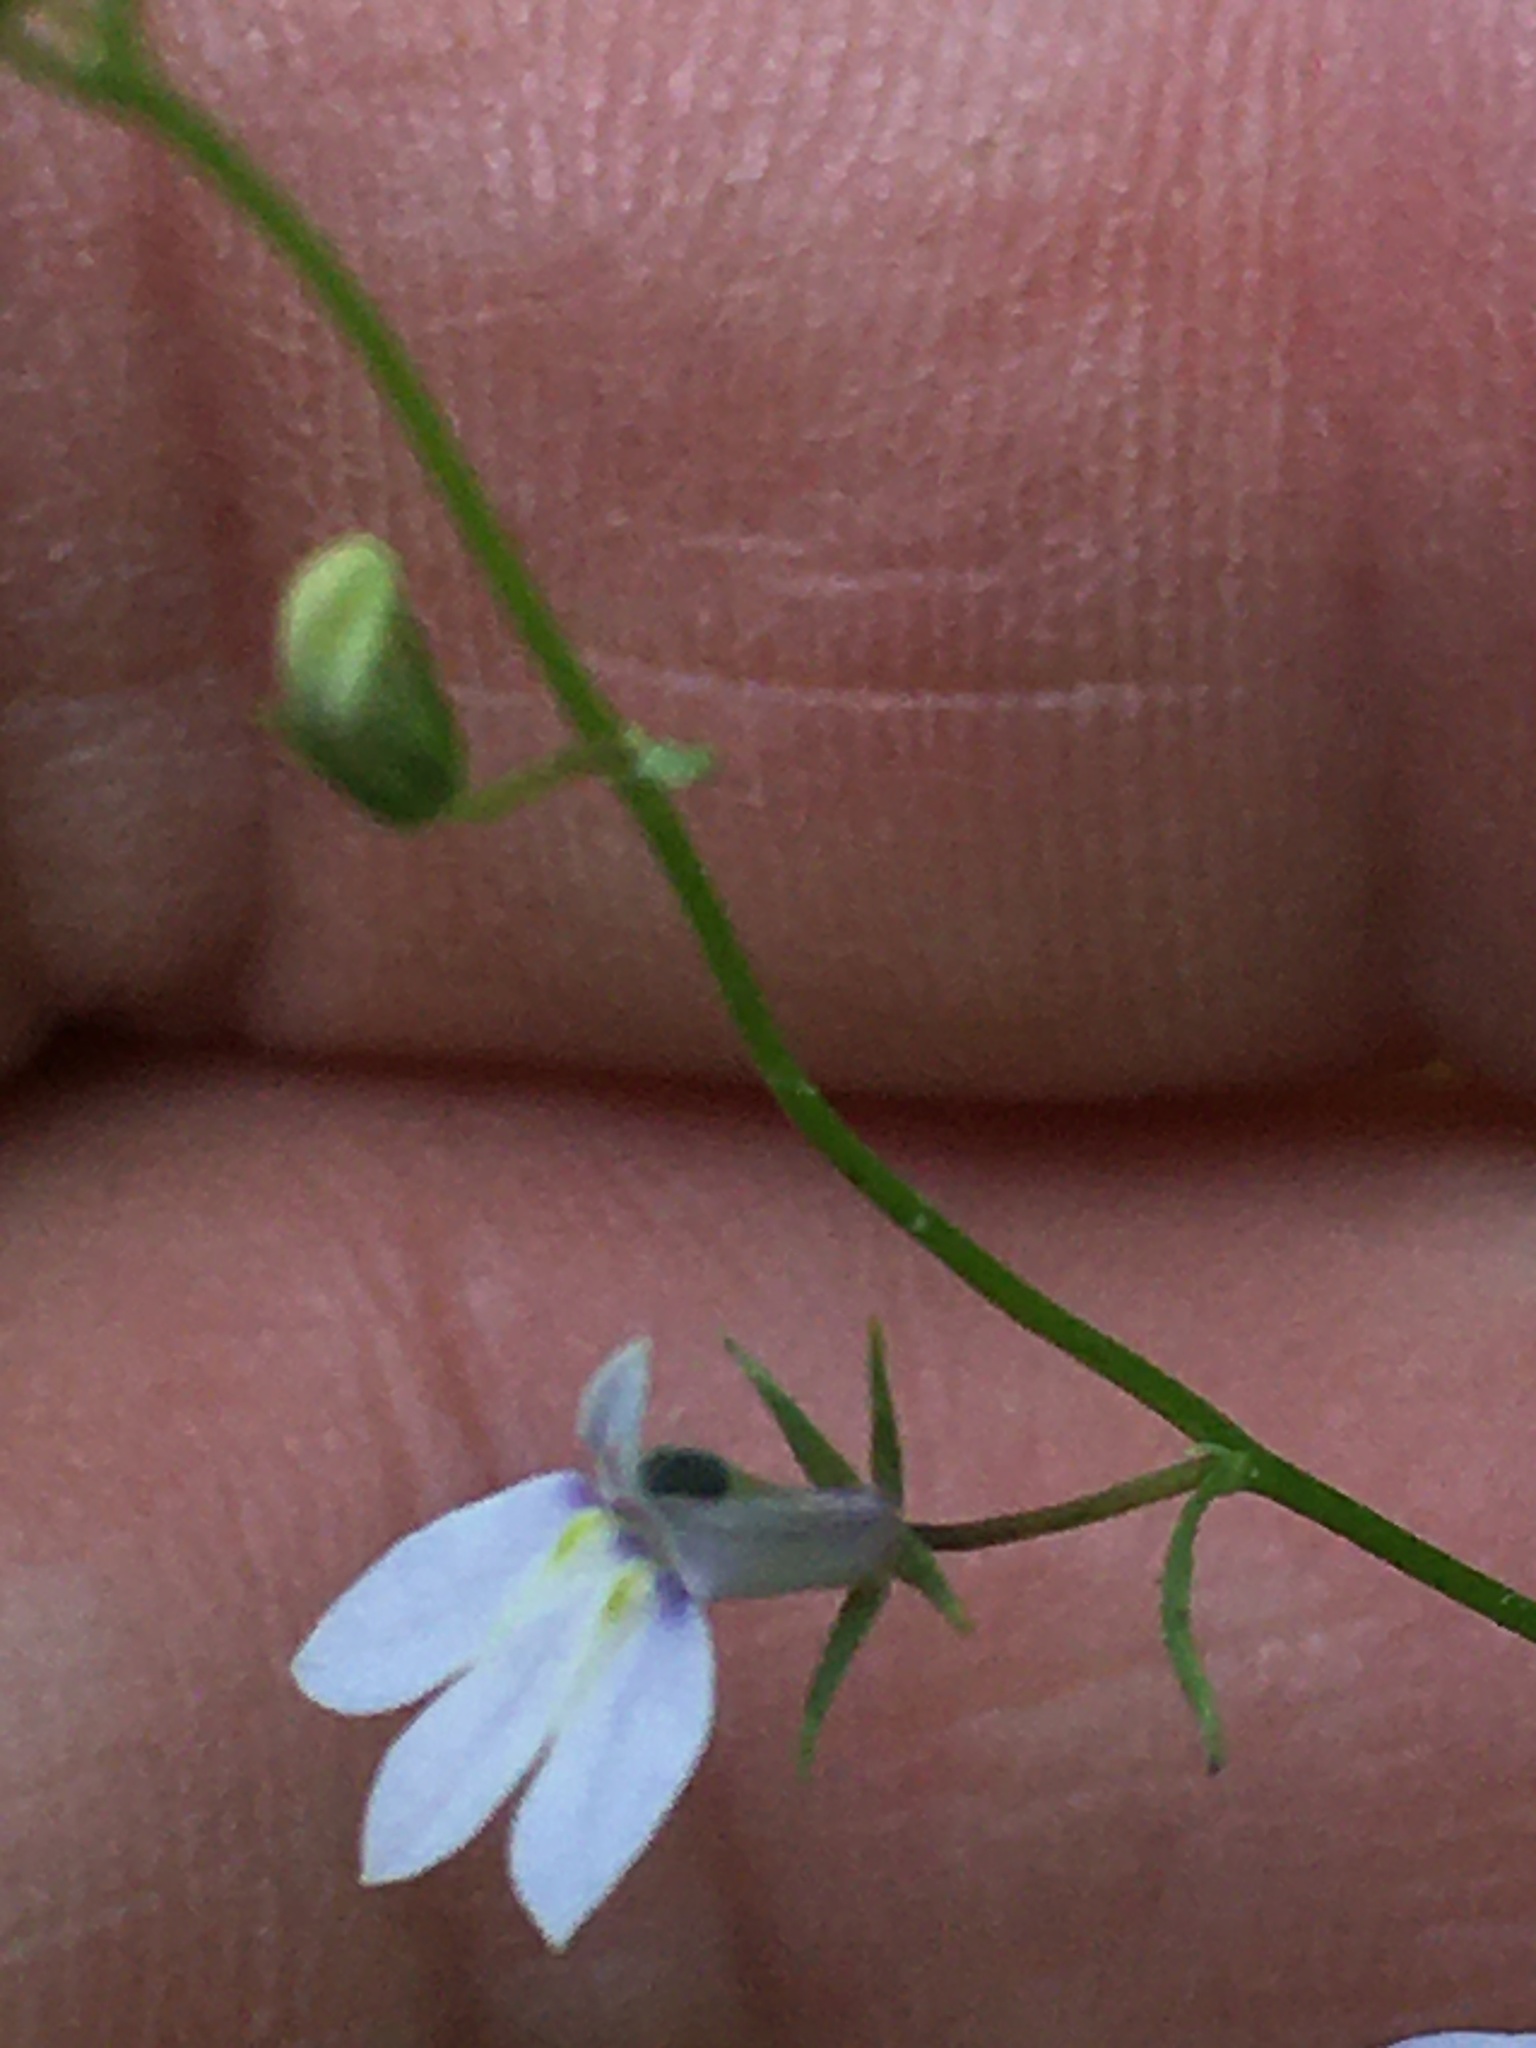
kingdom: Plantae
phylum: Tracheophyta
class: Magnoliopsida
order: Asterales
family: Campanulaceae
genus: Lobelia
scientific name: Lobelia nuttallii
